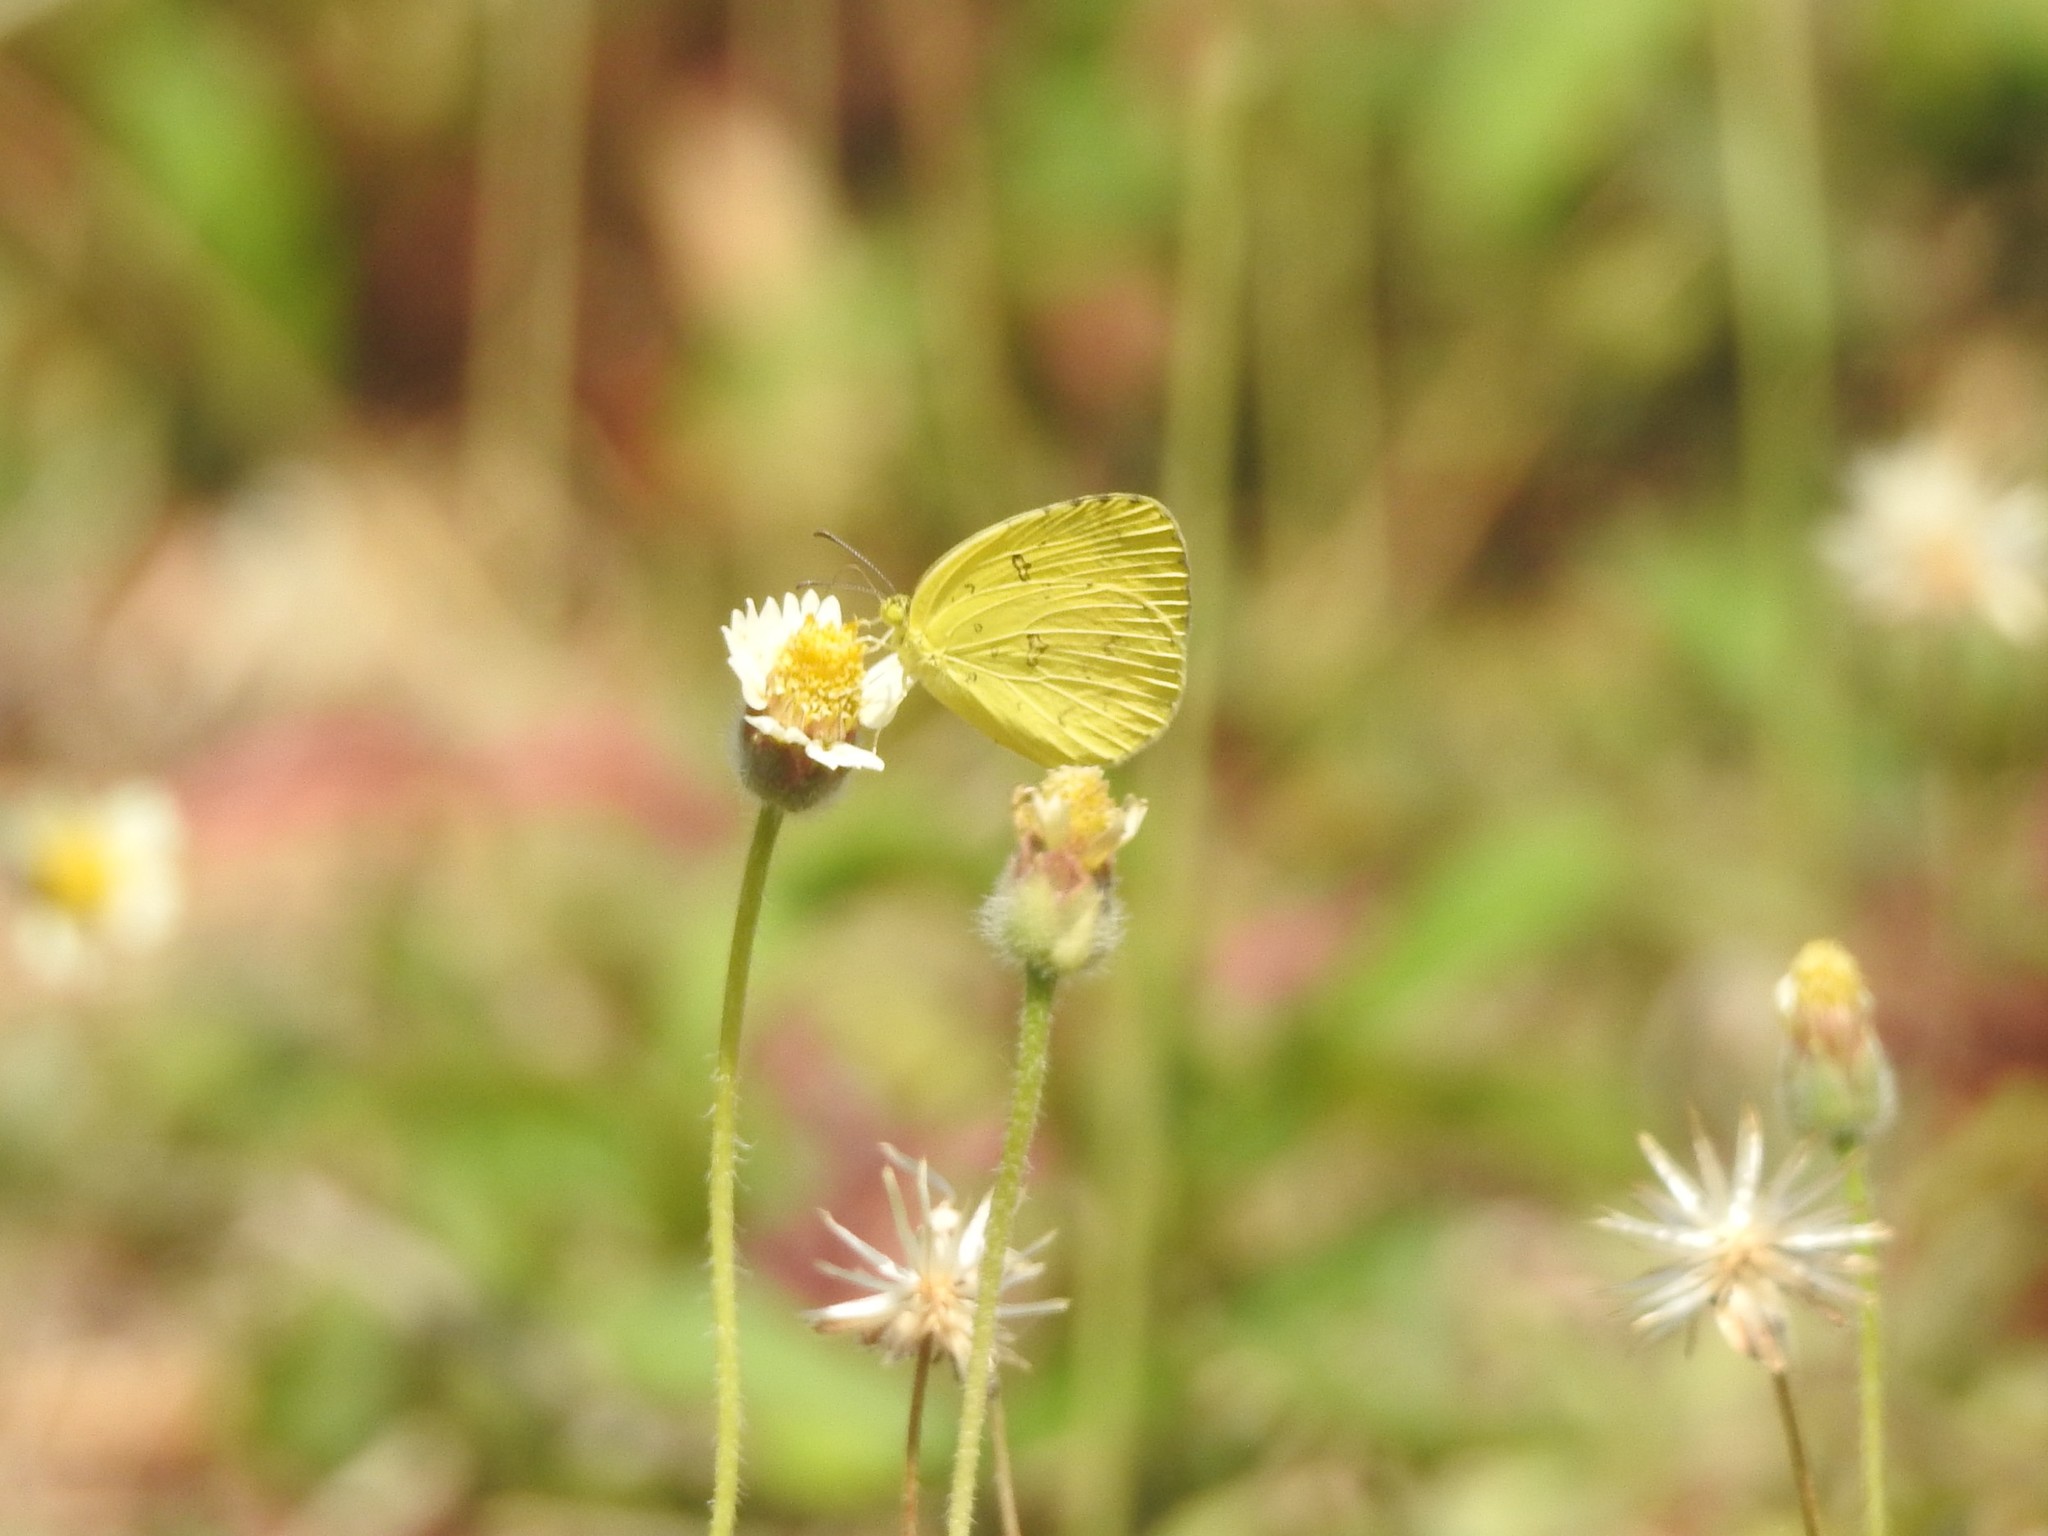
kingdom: Animalia
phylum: Arthropoda
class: Insecta
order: Lepidoptera
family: Pieridae
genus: Eurema
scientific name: Eurema hecabe
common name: Pale grass yellow
